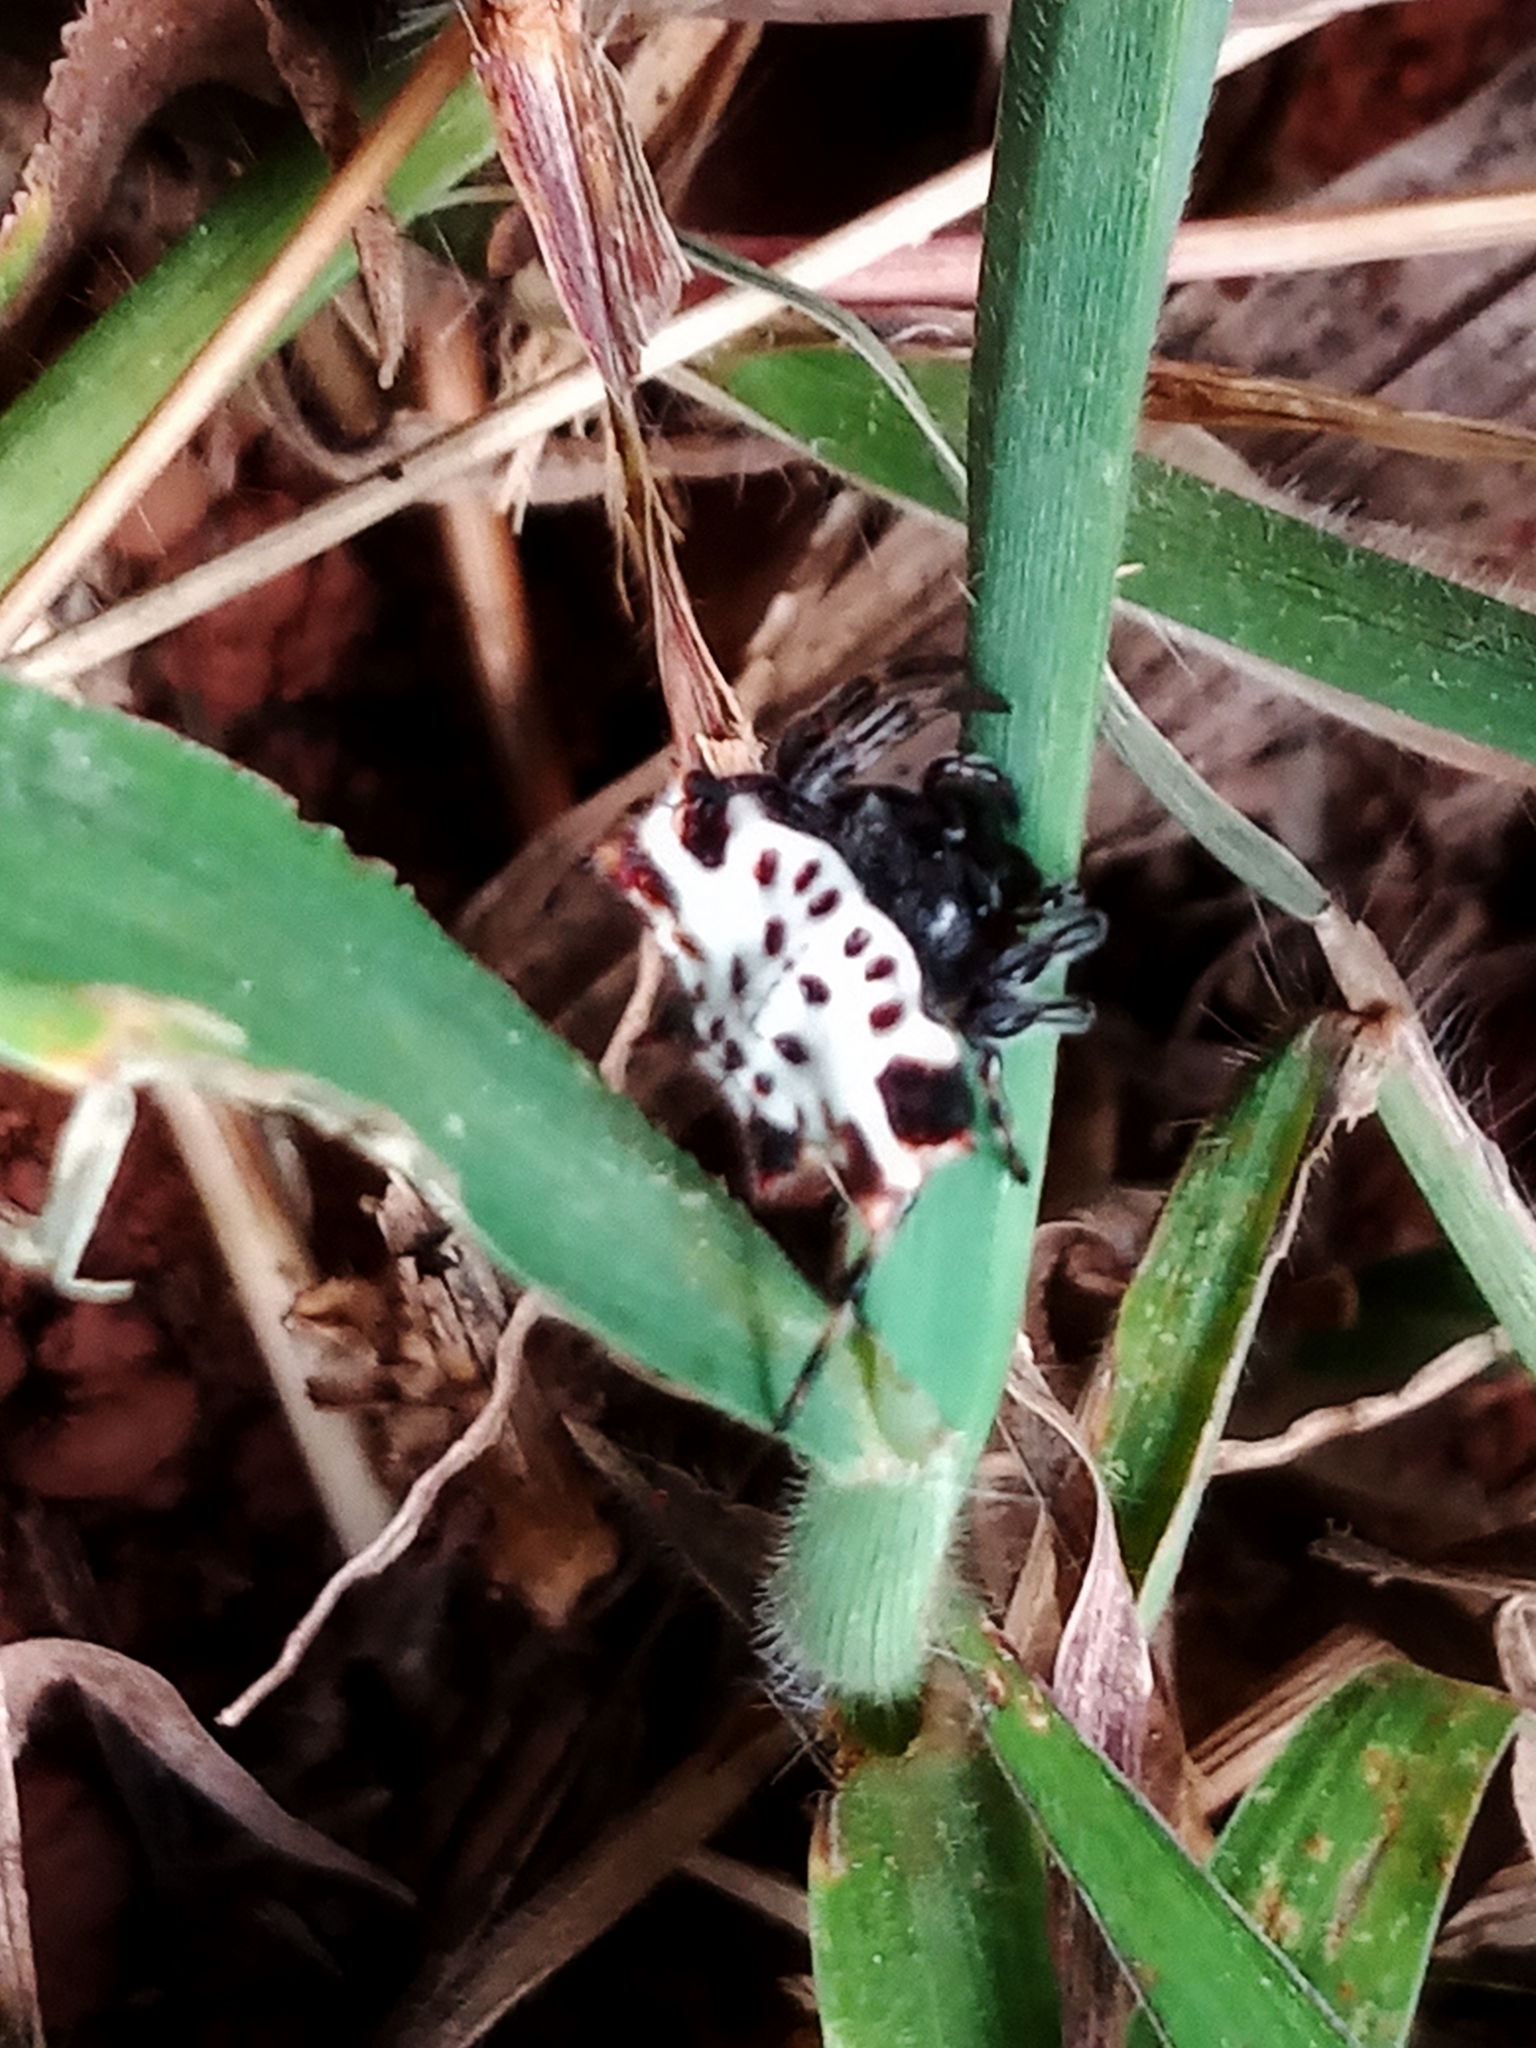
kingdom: Animalia
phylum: Arthropoda
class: Arachnida
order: Araneae
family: Araneidae
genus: Gasteracantha
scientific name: Gasteracantha cancriformis
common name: Orb weavers
